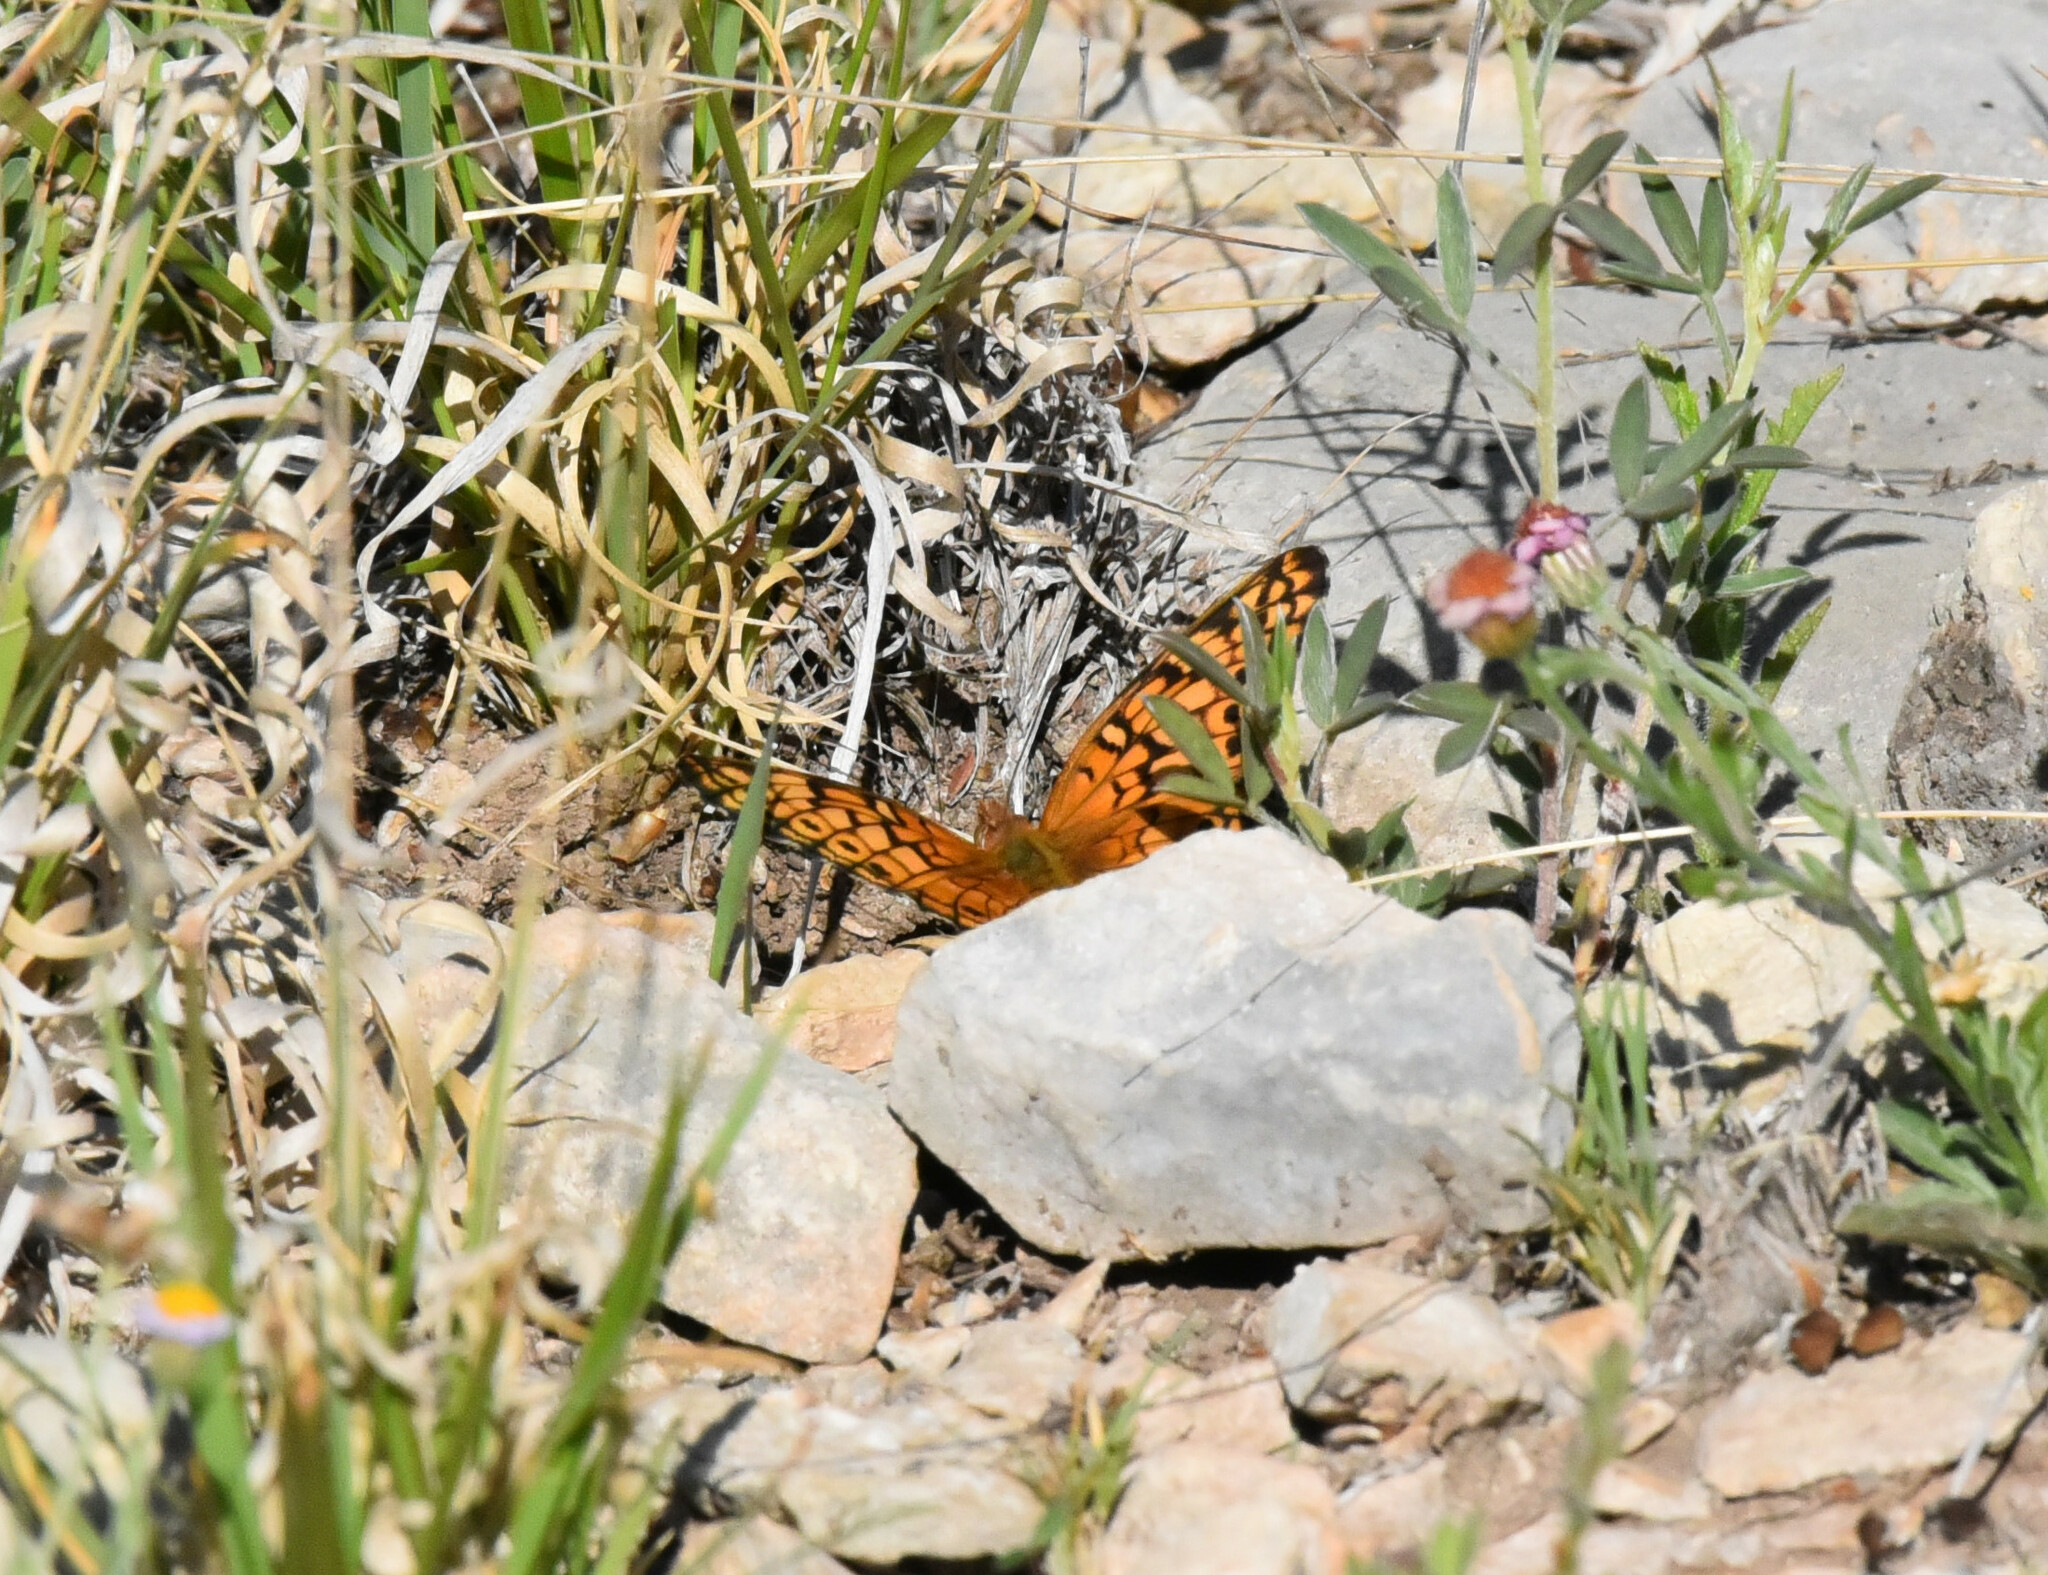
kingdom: Animalia
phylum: Arthropoda
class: Insecta
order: Lepidoptera
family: Nymphalidae
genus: Euptoieta
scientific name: Euptoieta claudia
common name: Variegated fritillary
